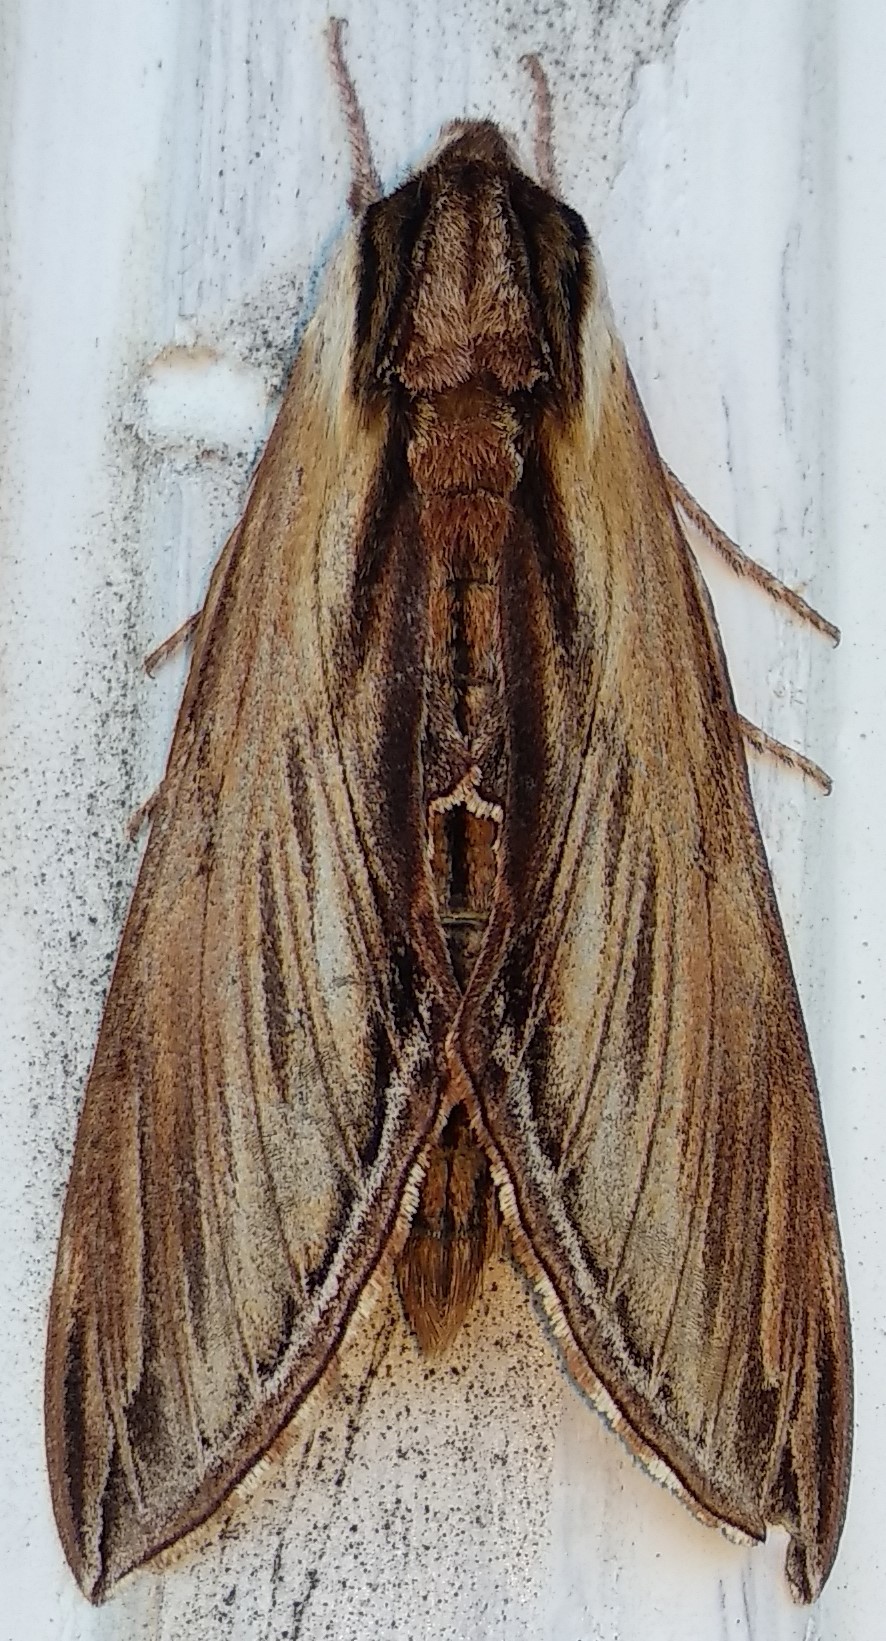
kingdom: Animalia
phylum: Arthropoda
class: Insecta
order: Lepidoptera
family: Sphingidae
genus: Sphinx
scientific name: Sphinx kalmiae
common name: Laurel sphinx
